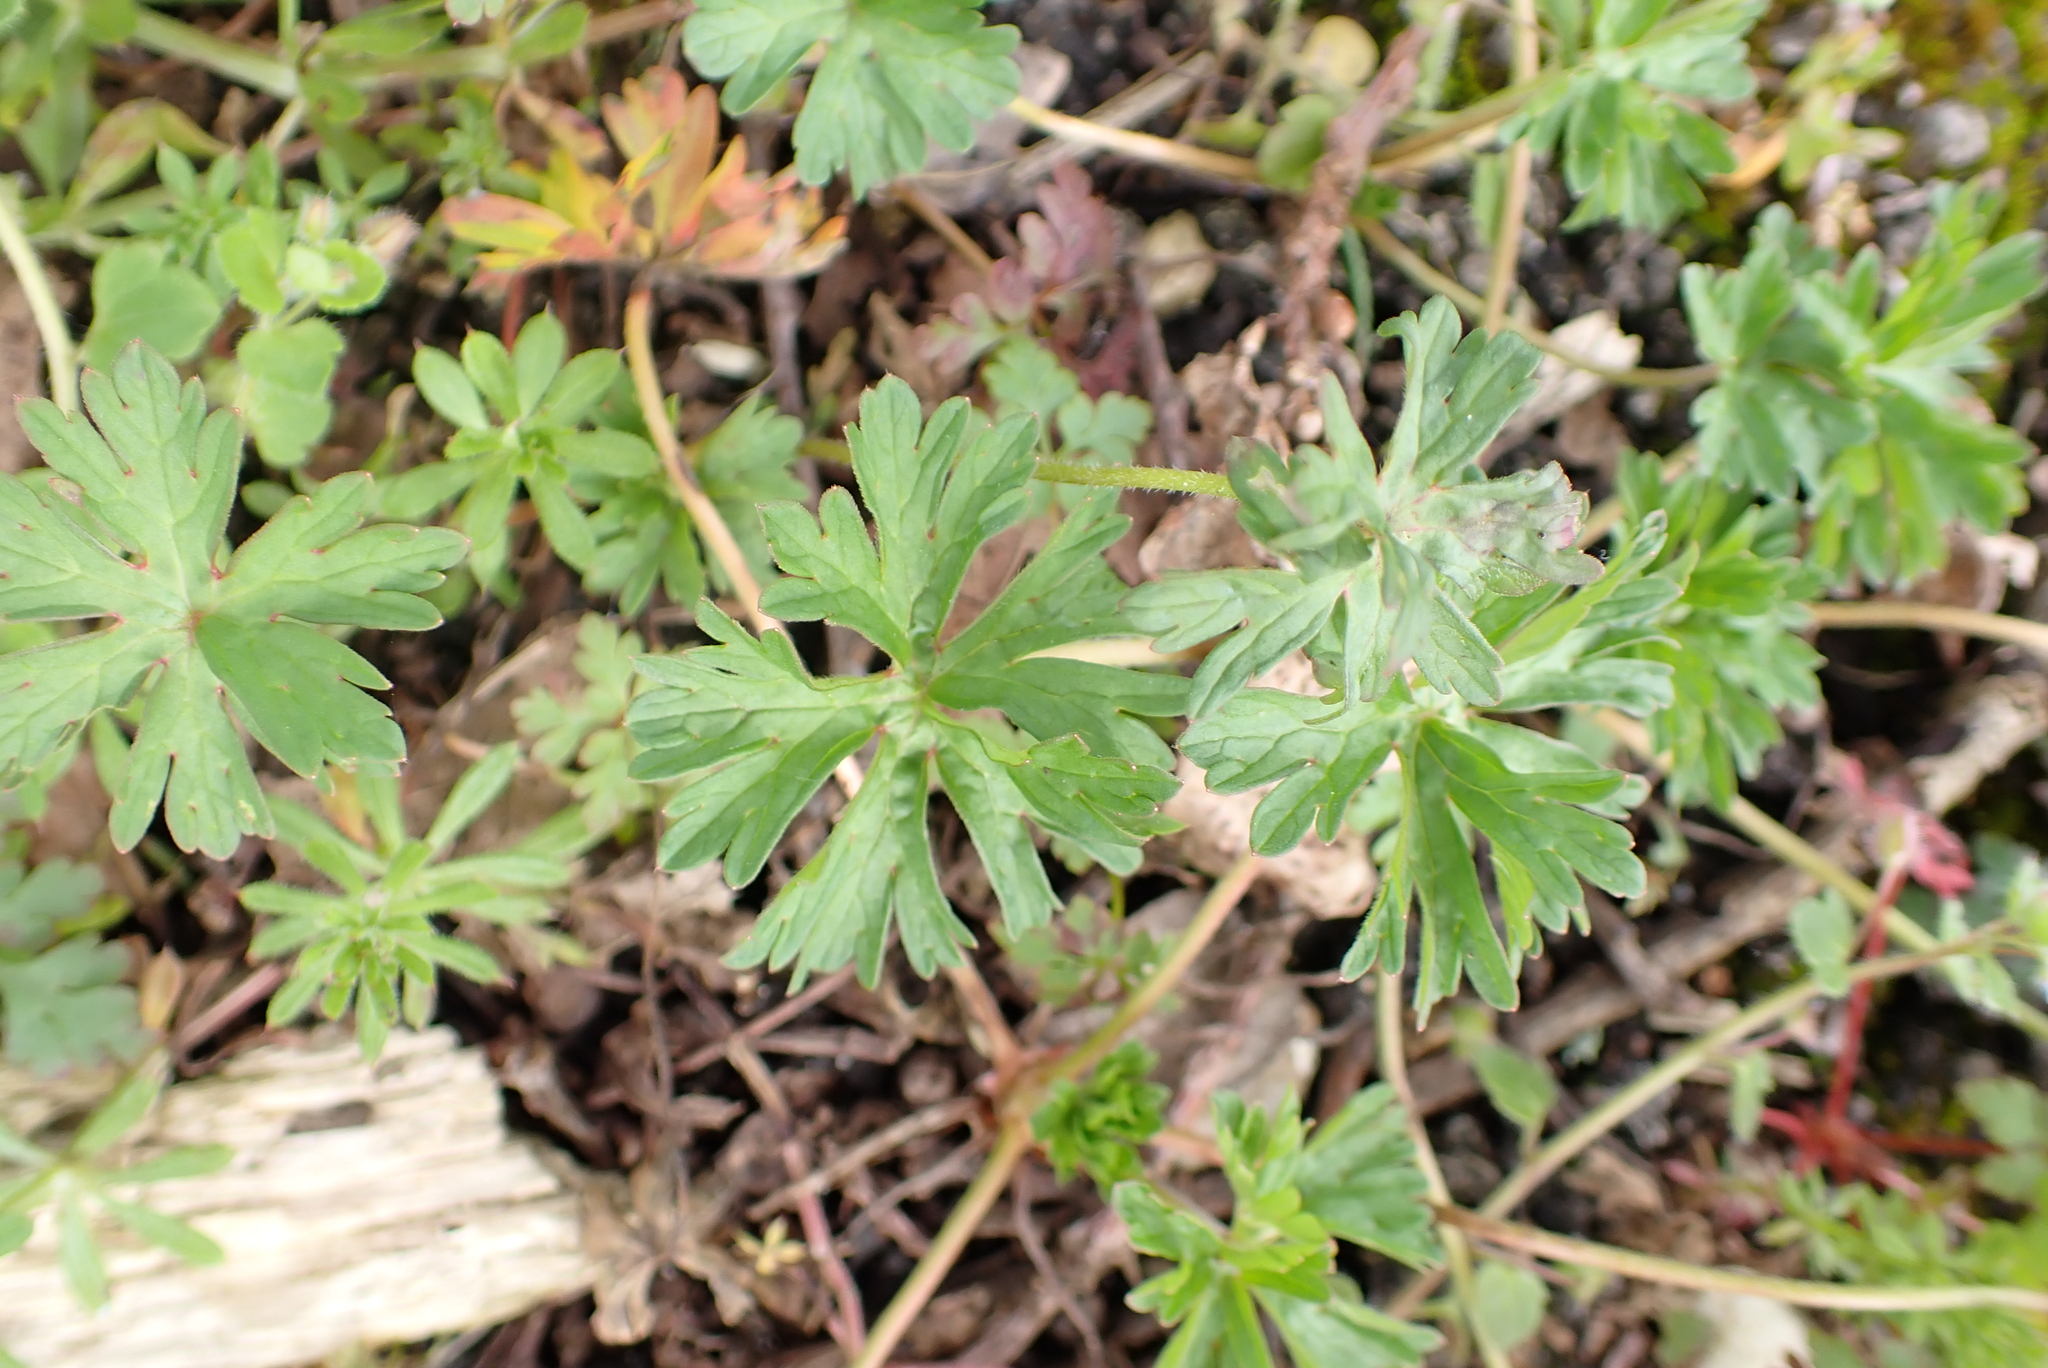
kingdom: Plantae
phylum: Tracheophyta
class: Magnoliopsida
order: Geraniales
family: Geraniaceae
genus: Geranium
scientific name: Geranium dissectum
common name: Cut-leaved crane's-bill
